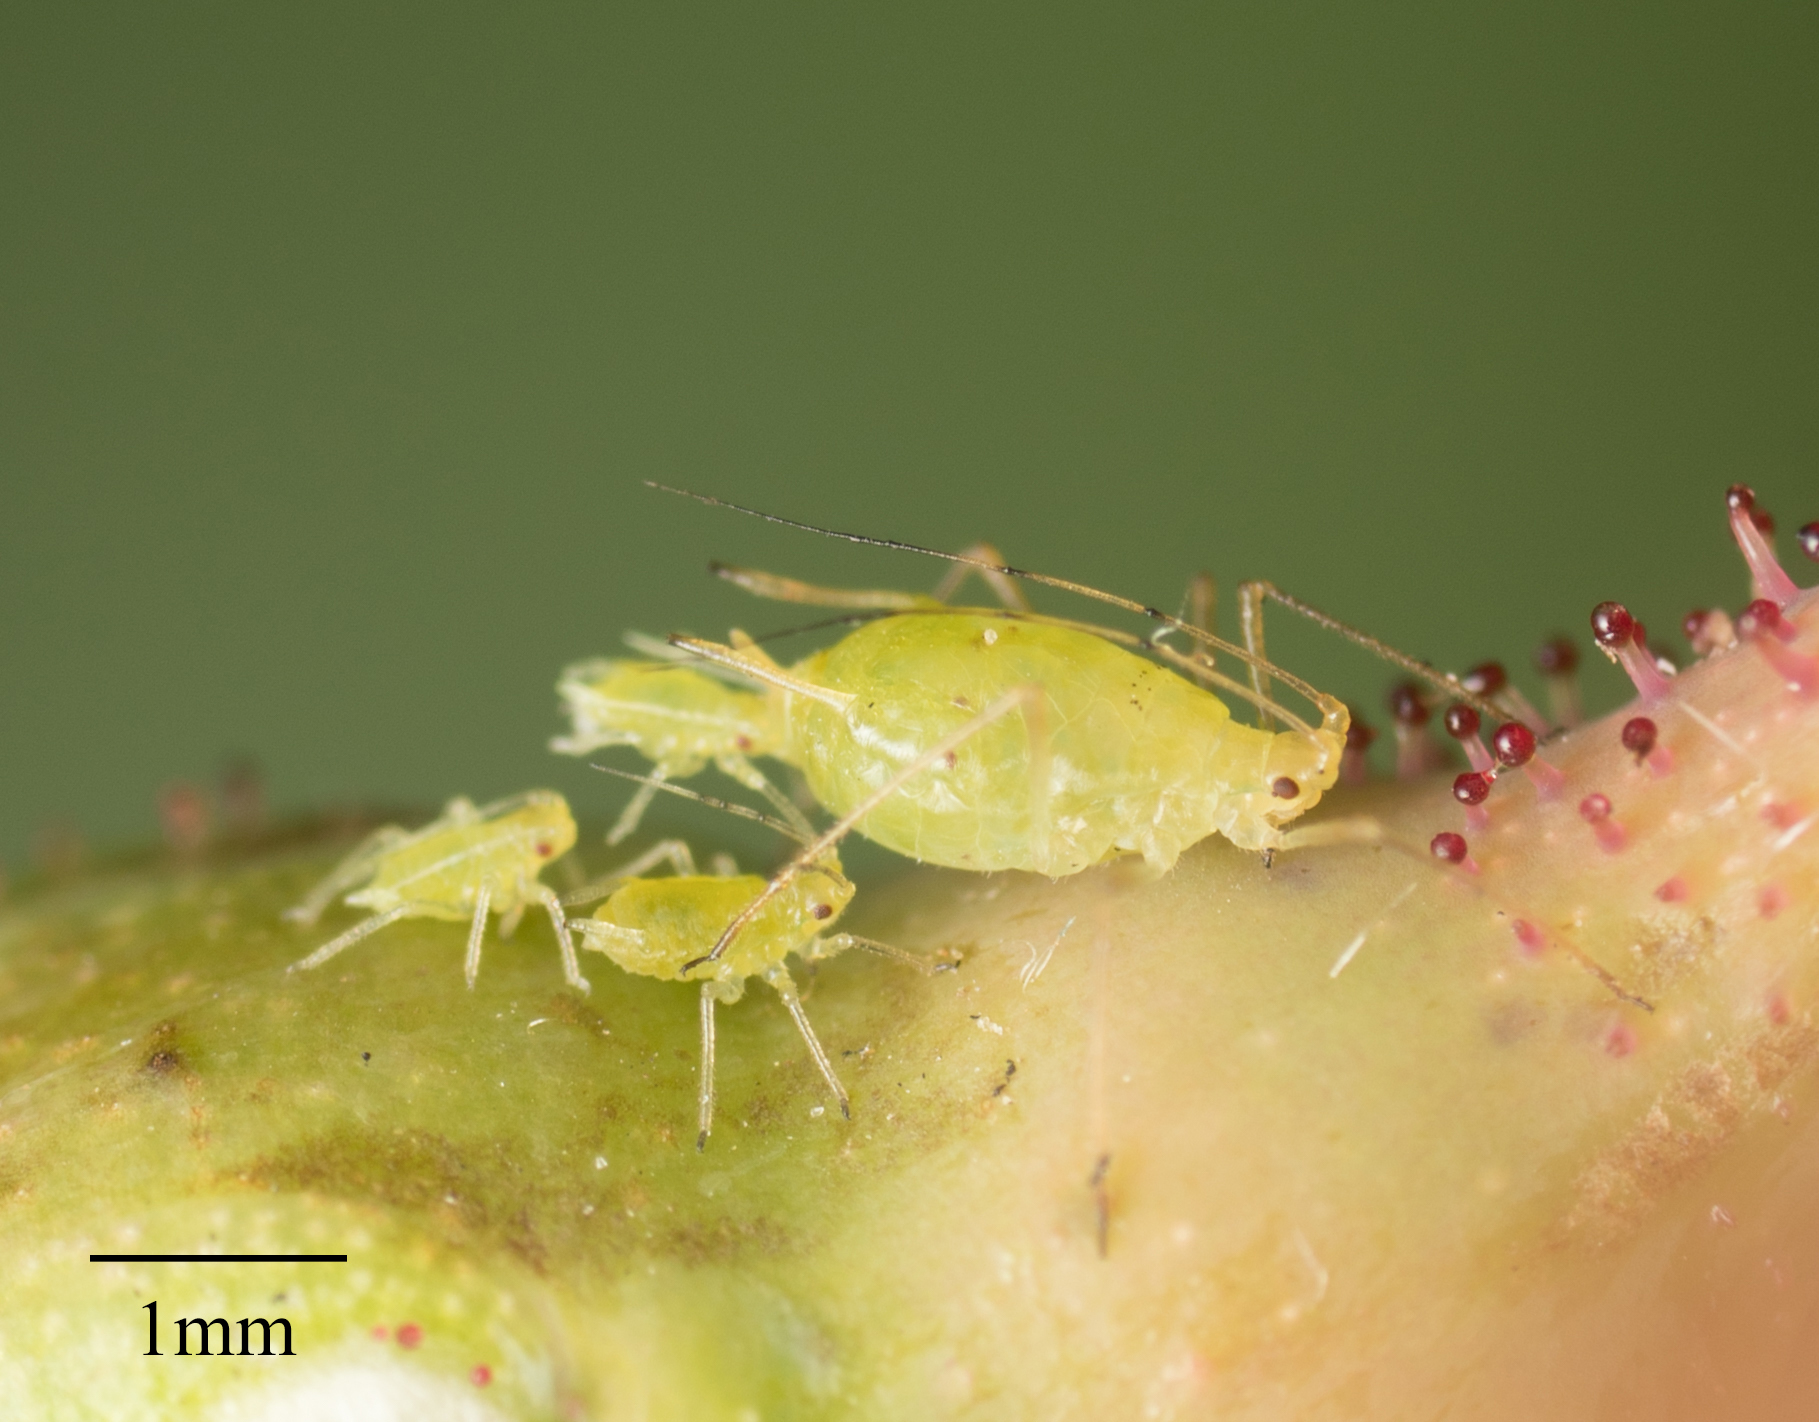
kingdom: Animalia
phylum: Arthropoda
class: Insecta
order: Hemiptera
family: Aphididae
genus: Wahlgreniella
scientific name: Wahlgreniella nervata
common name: Pale green aphid
